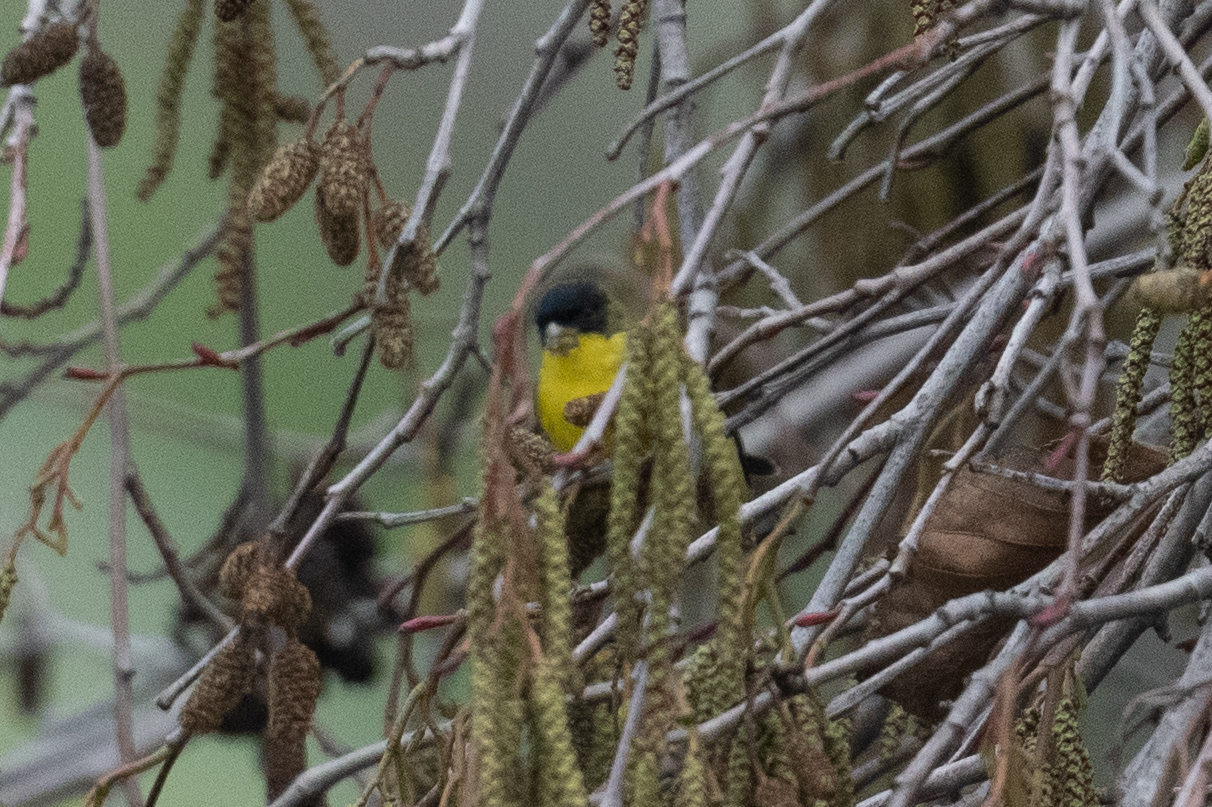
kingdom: Animalia
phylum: Chordata
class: Aves
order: Passeriformes
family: Fringillidae
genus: Spinus
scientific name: Spinus psaltria
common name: Lesser goldfinch
